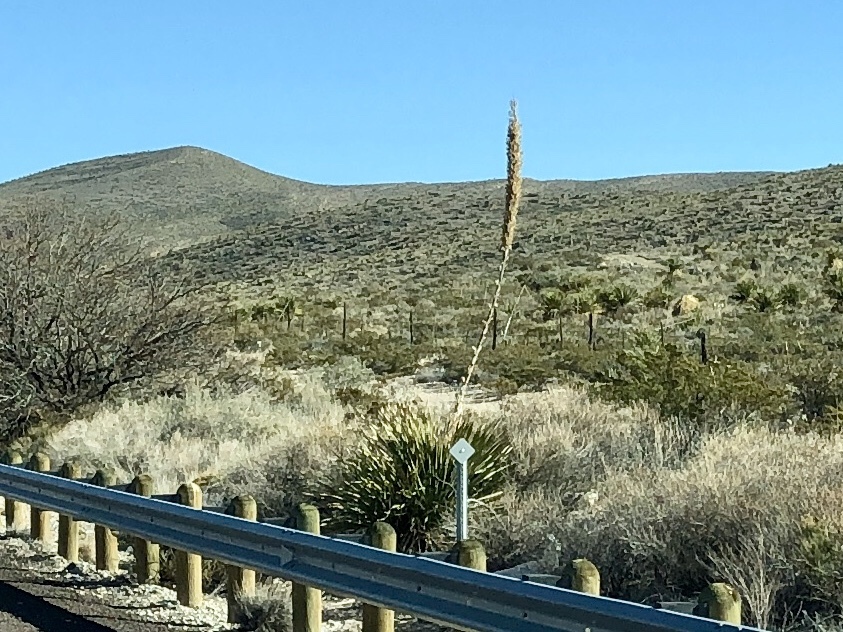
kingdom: Plantae
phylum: Tracheophyta
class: Liliopsida
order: Asparagales
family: Asparagaceae
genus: Dasylirion
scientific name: Dasylirion wheeleri
